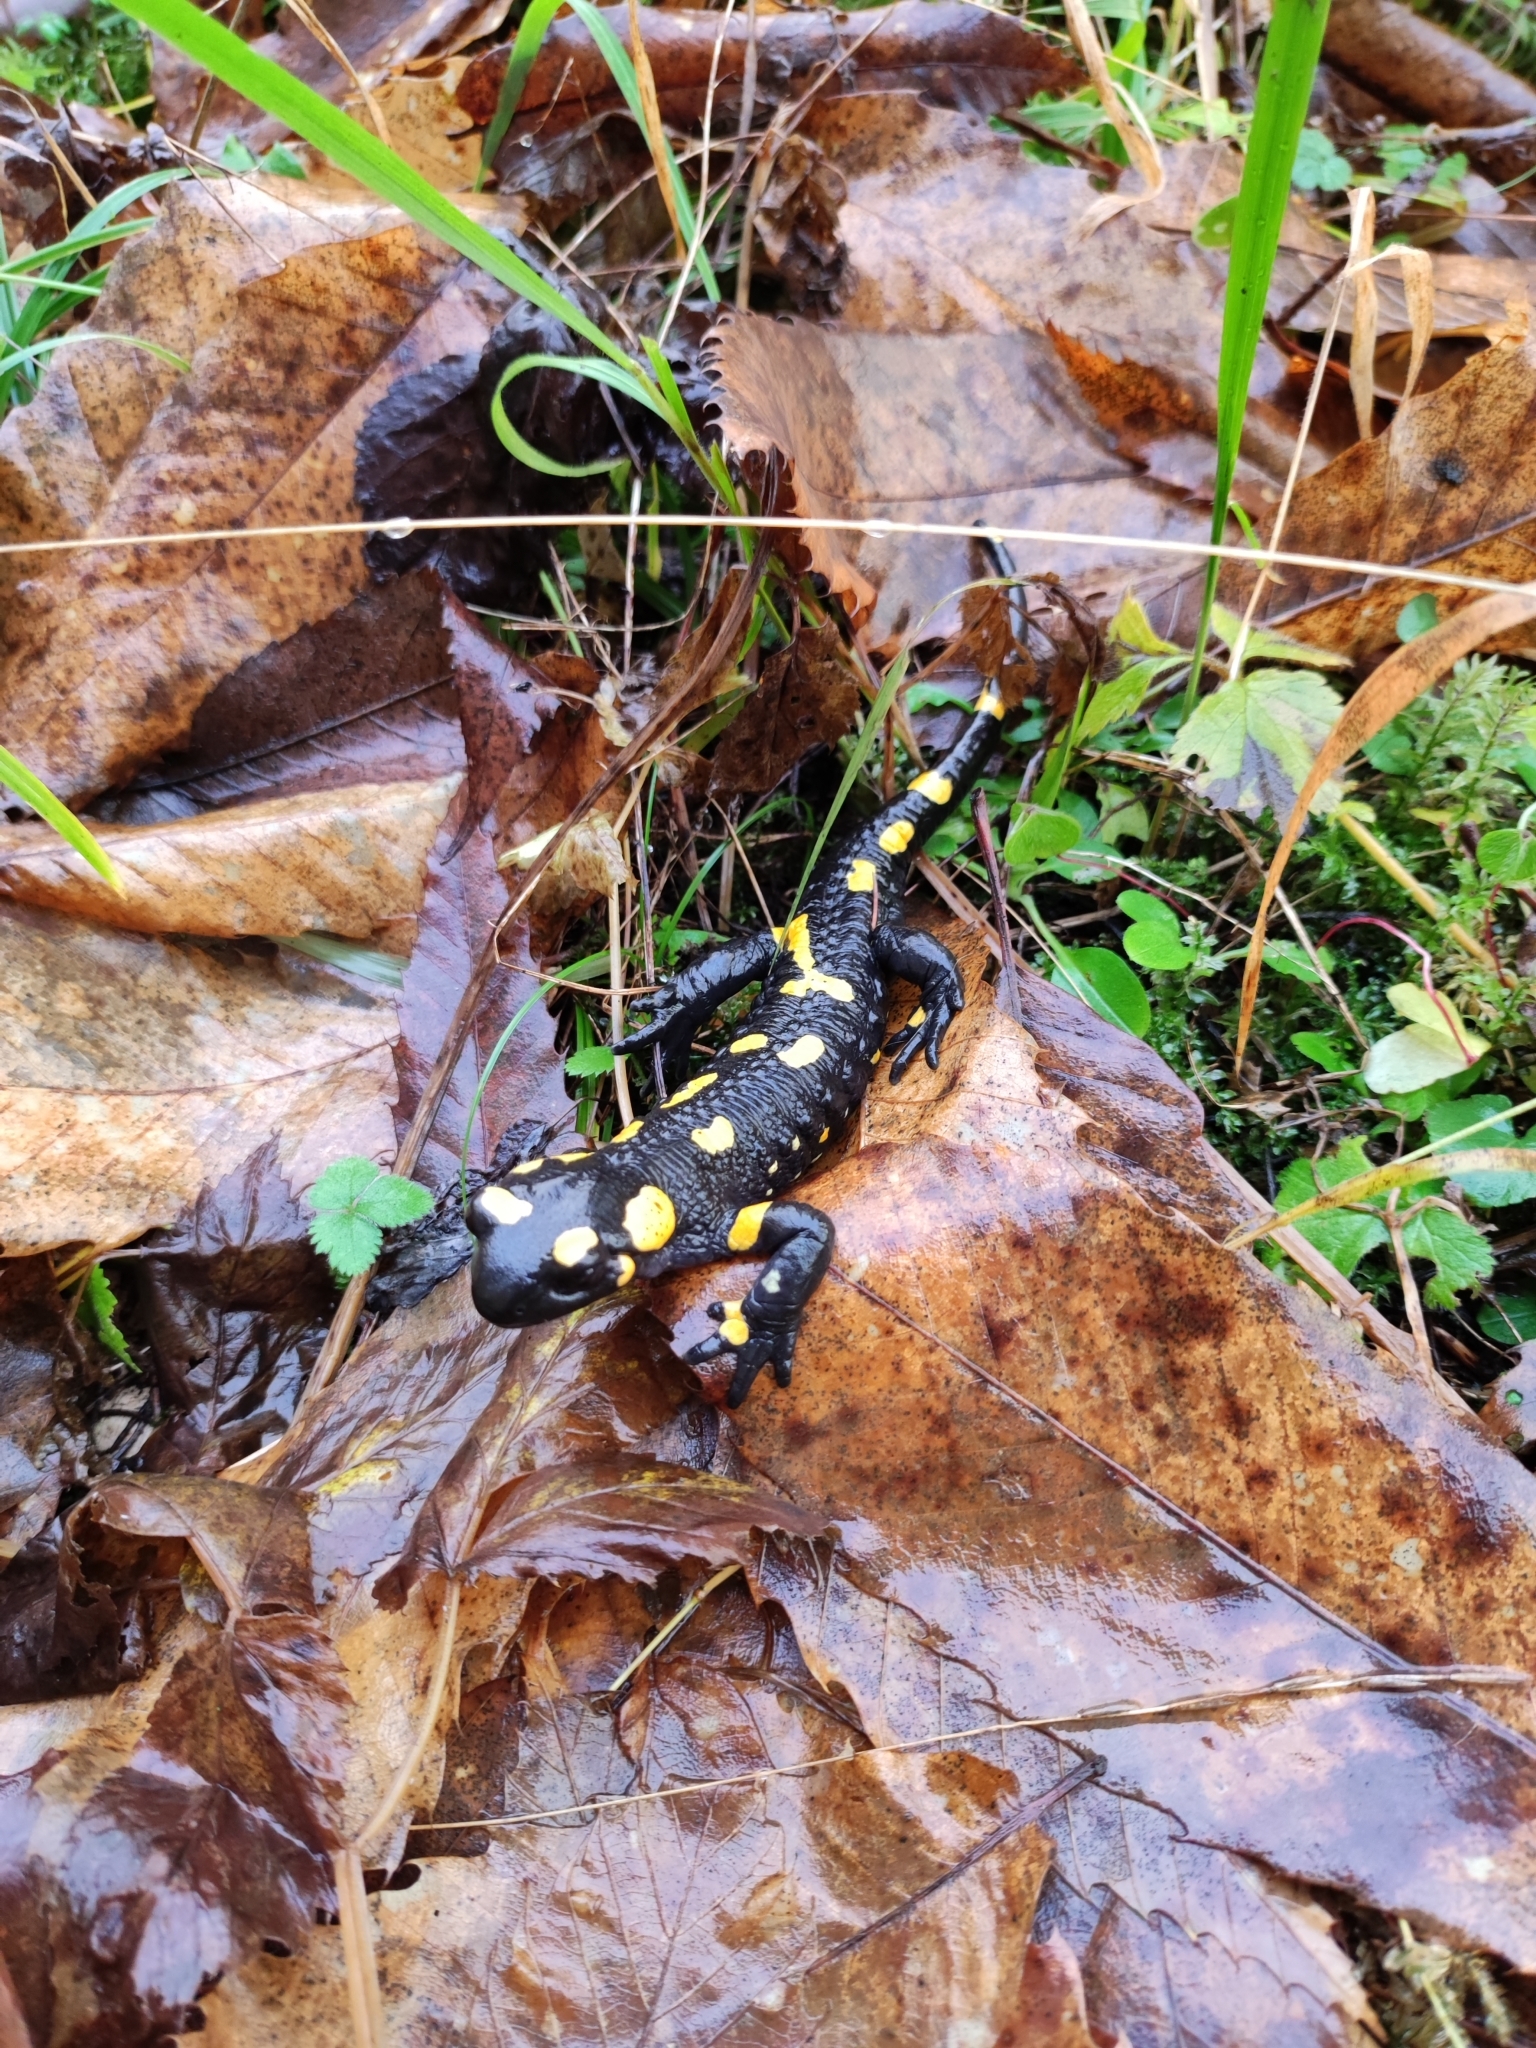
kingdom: Animalia
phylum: Chordata
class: Amphibia
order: Caudata
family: Salamandridae
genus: Salamandra
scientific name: Salamandra salamandra
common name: Fire salamander
